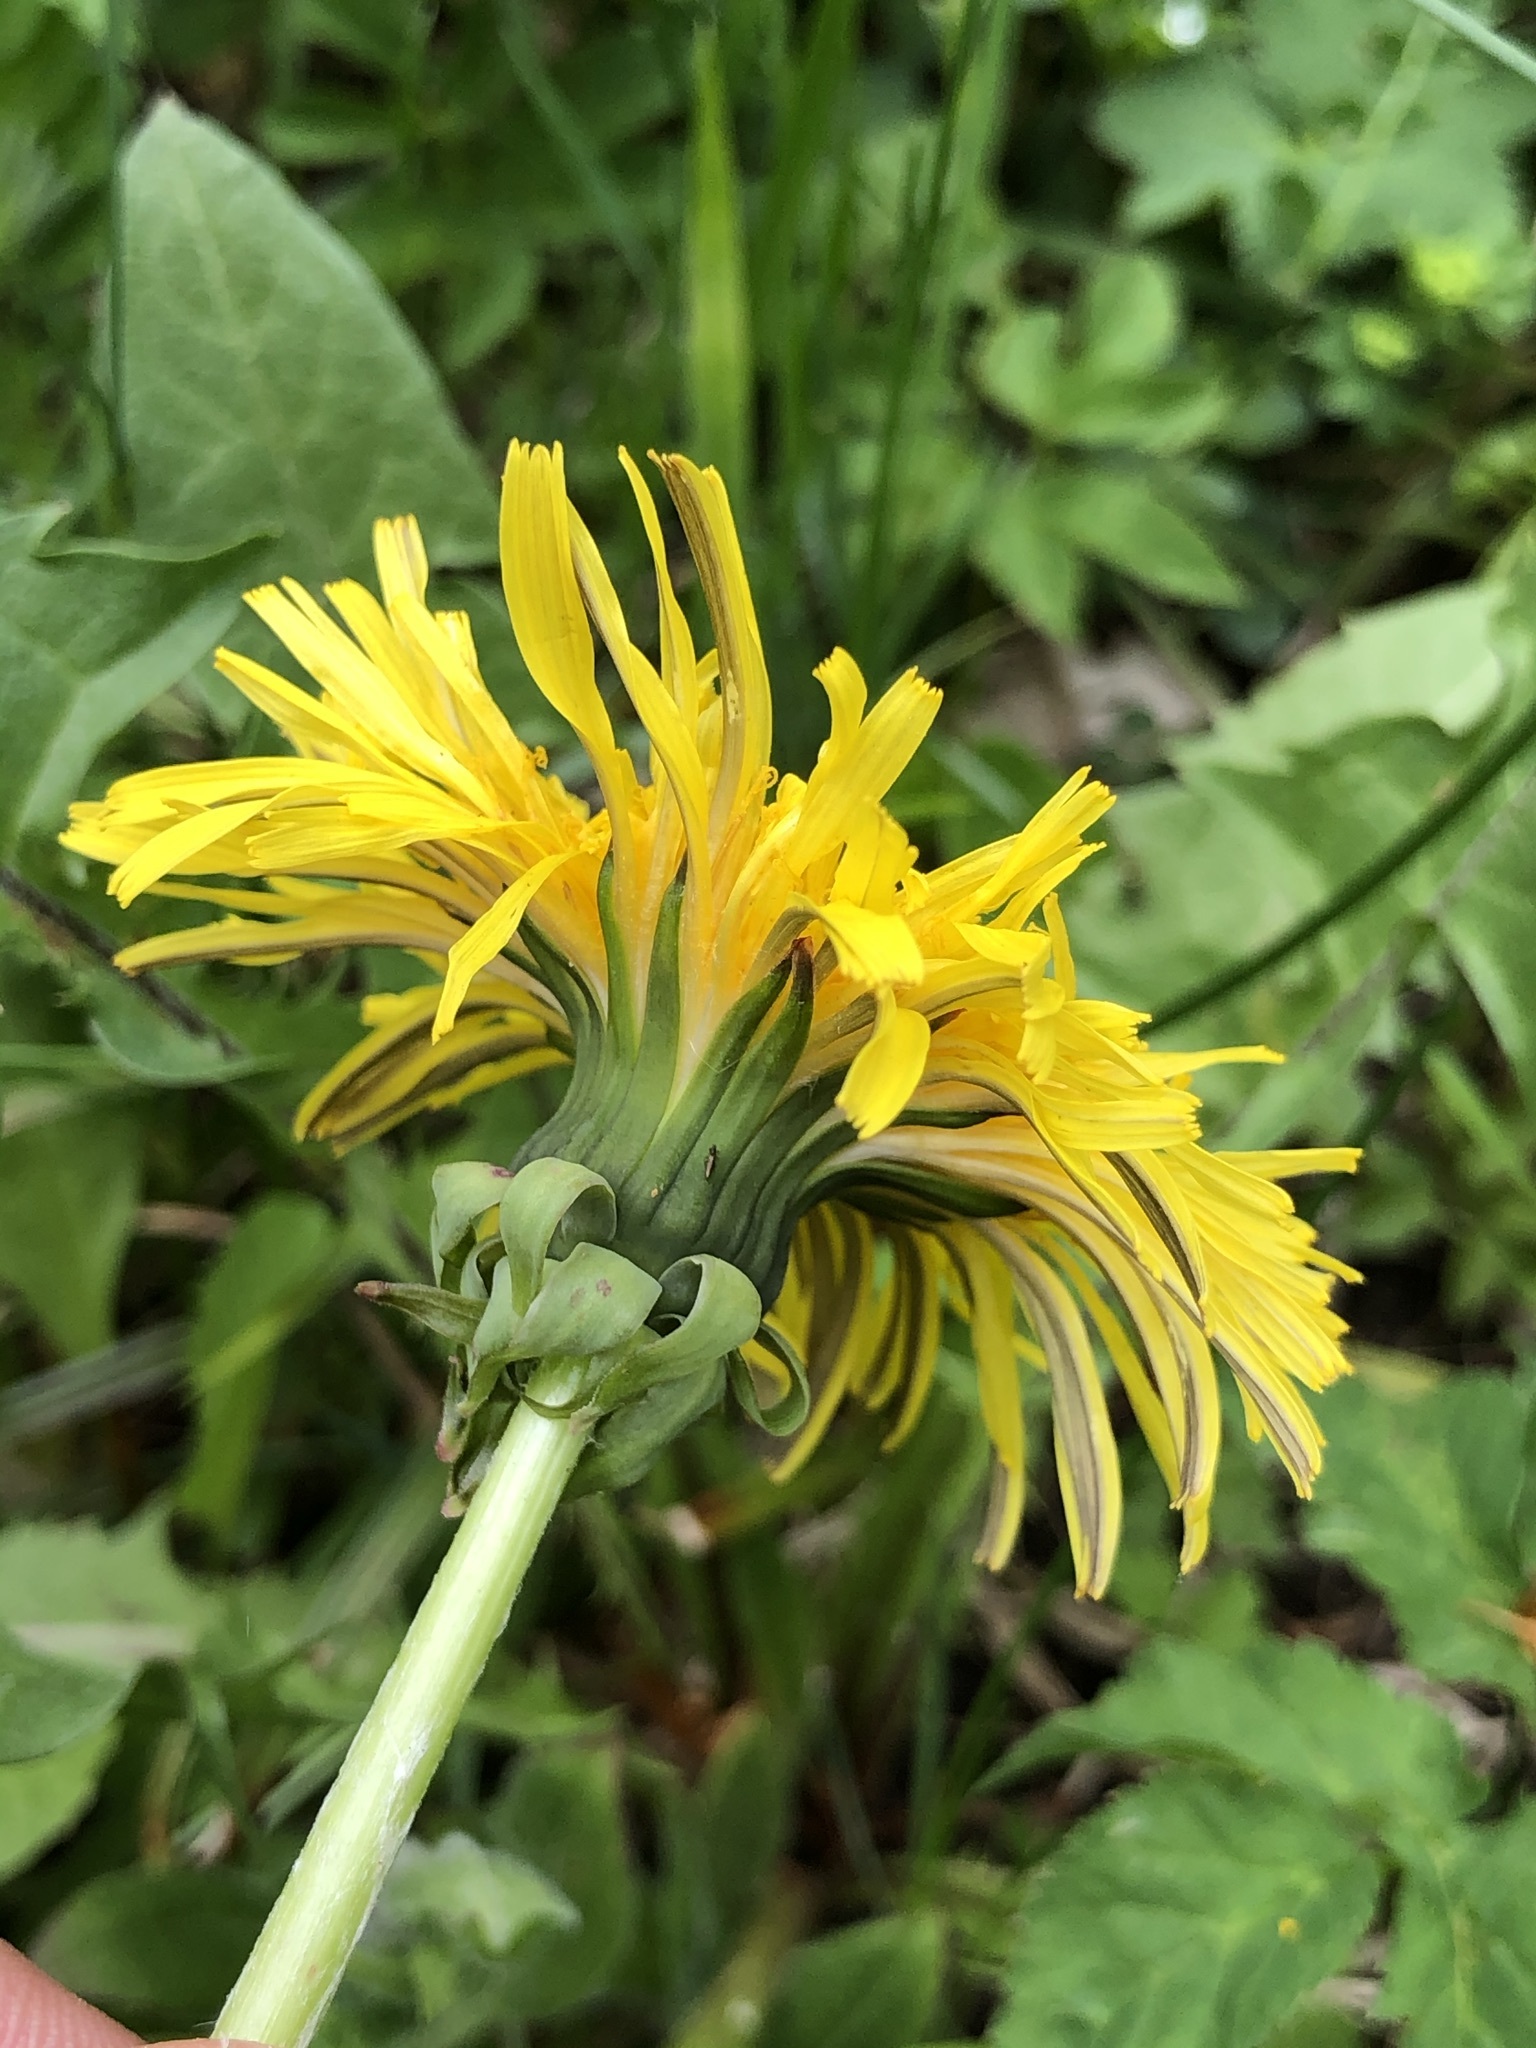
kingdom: Plantae
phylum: Tracheophyta
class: Magnoliopsida
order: Asterales
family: Asteraceae
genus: Taraxacum
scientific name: Taraxacum officinale
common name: Common dandelion
